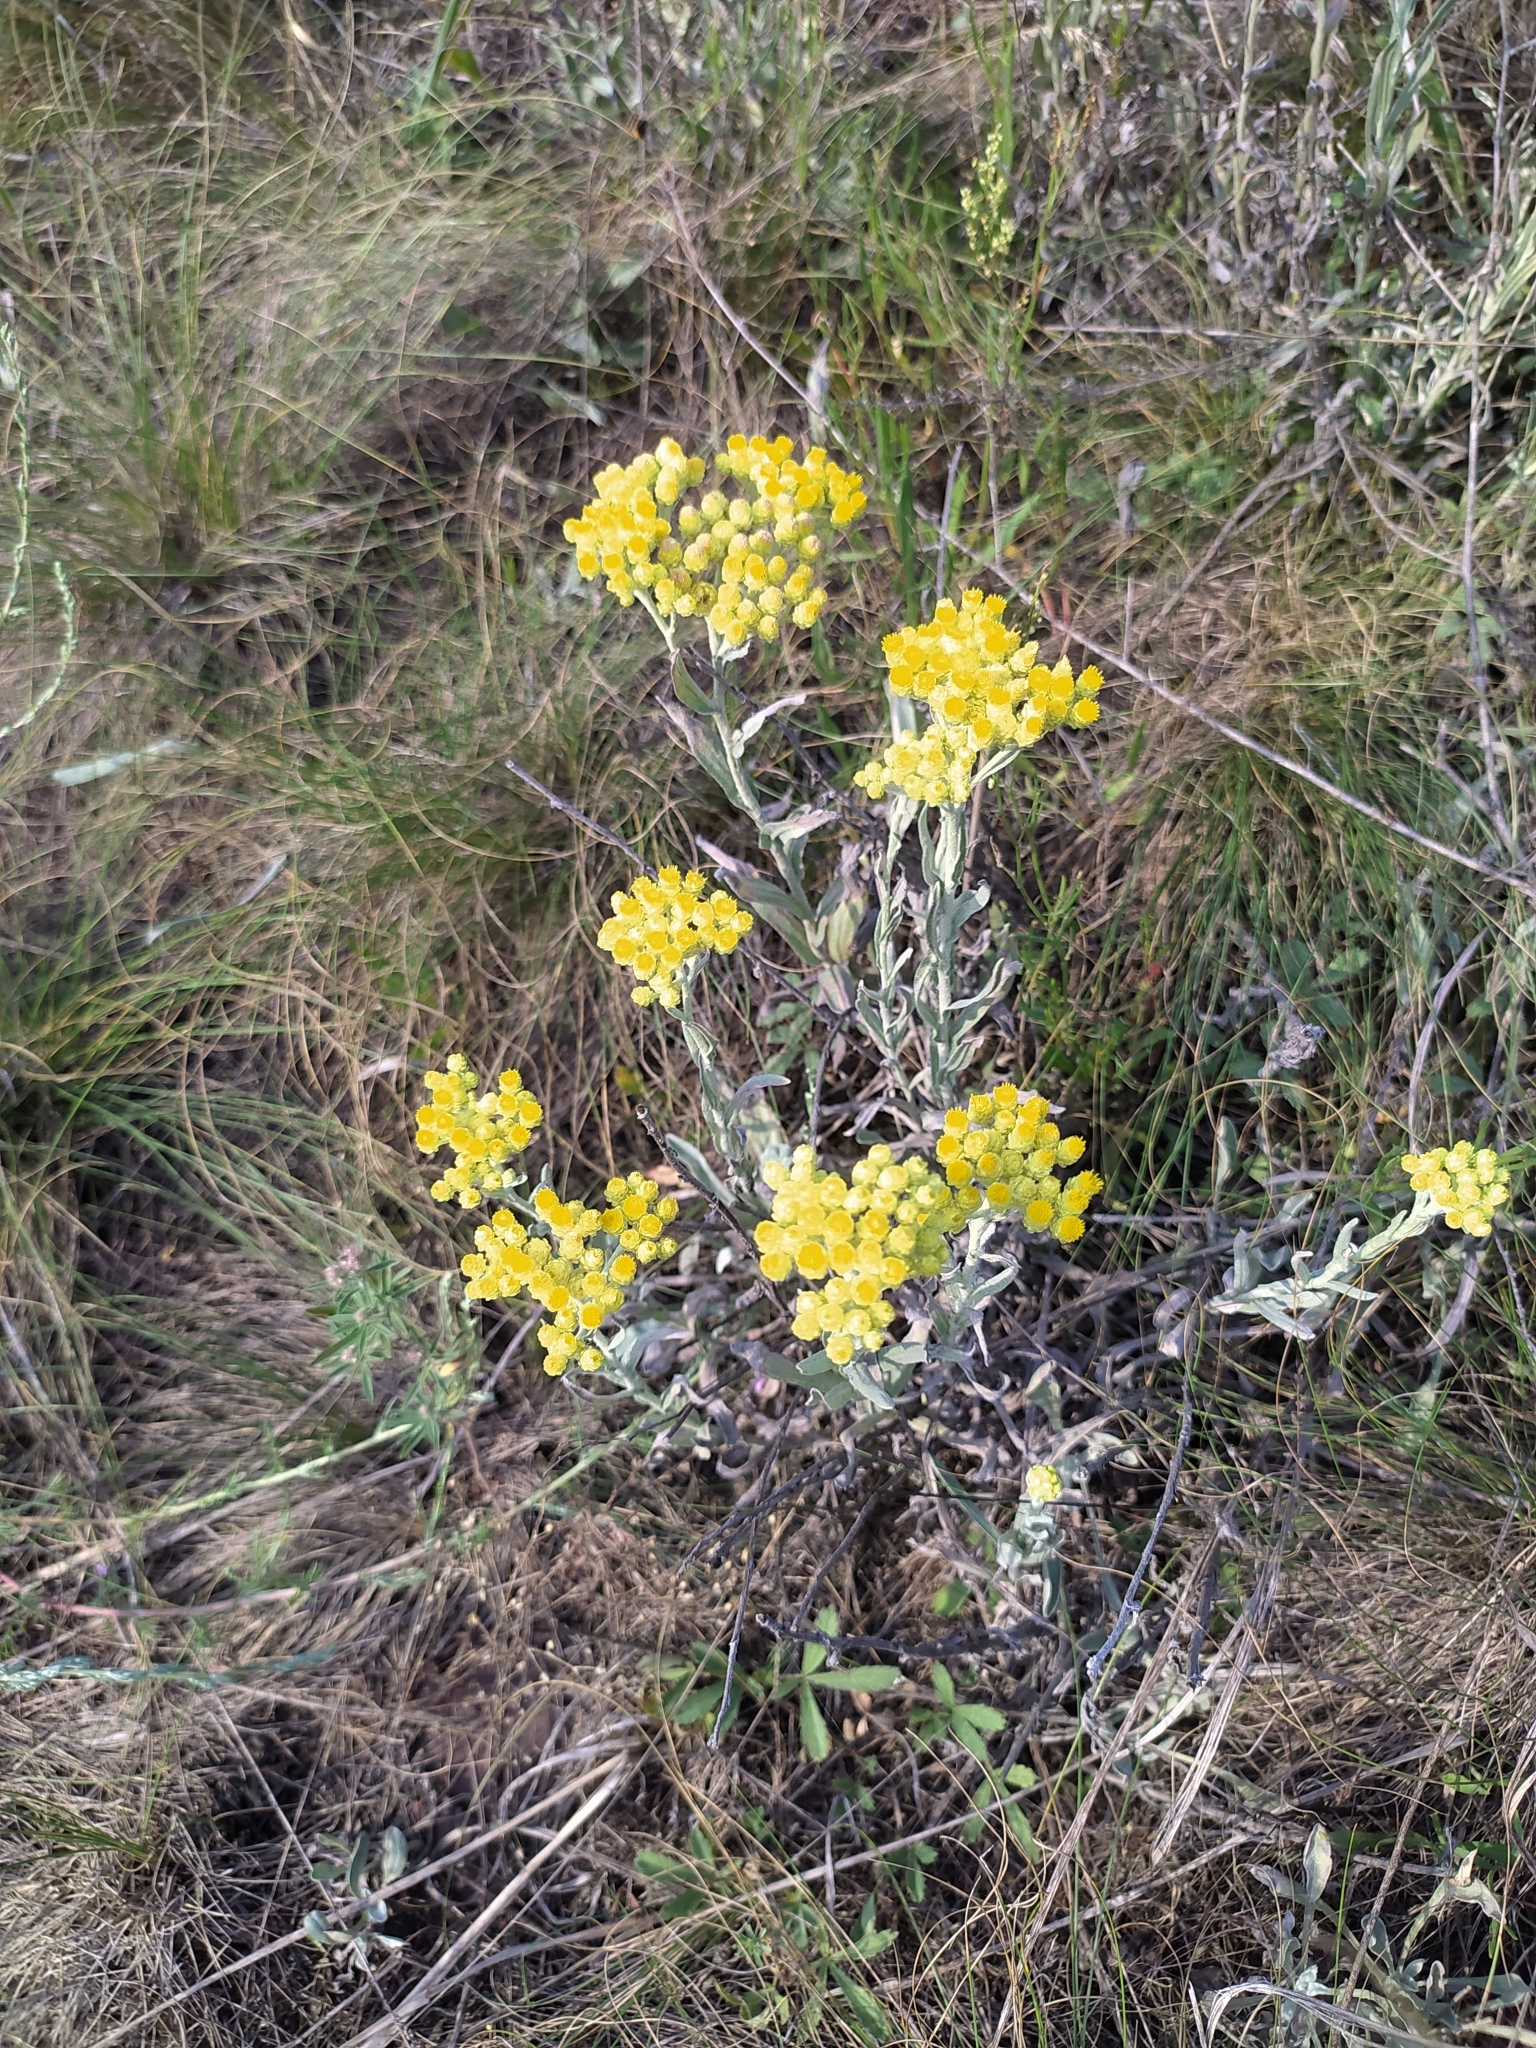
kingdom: Plantae
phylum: Tracheophyta
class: Magnoliopsida
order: Asterales
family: Asteraceae
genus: Helichrysum
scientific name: Helichrysum arenarium
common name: Strawflower
